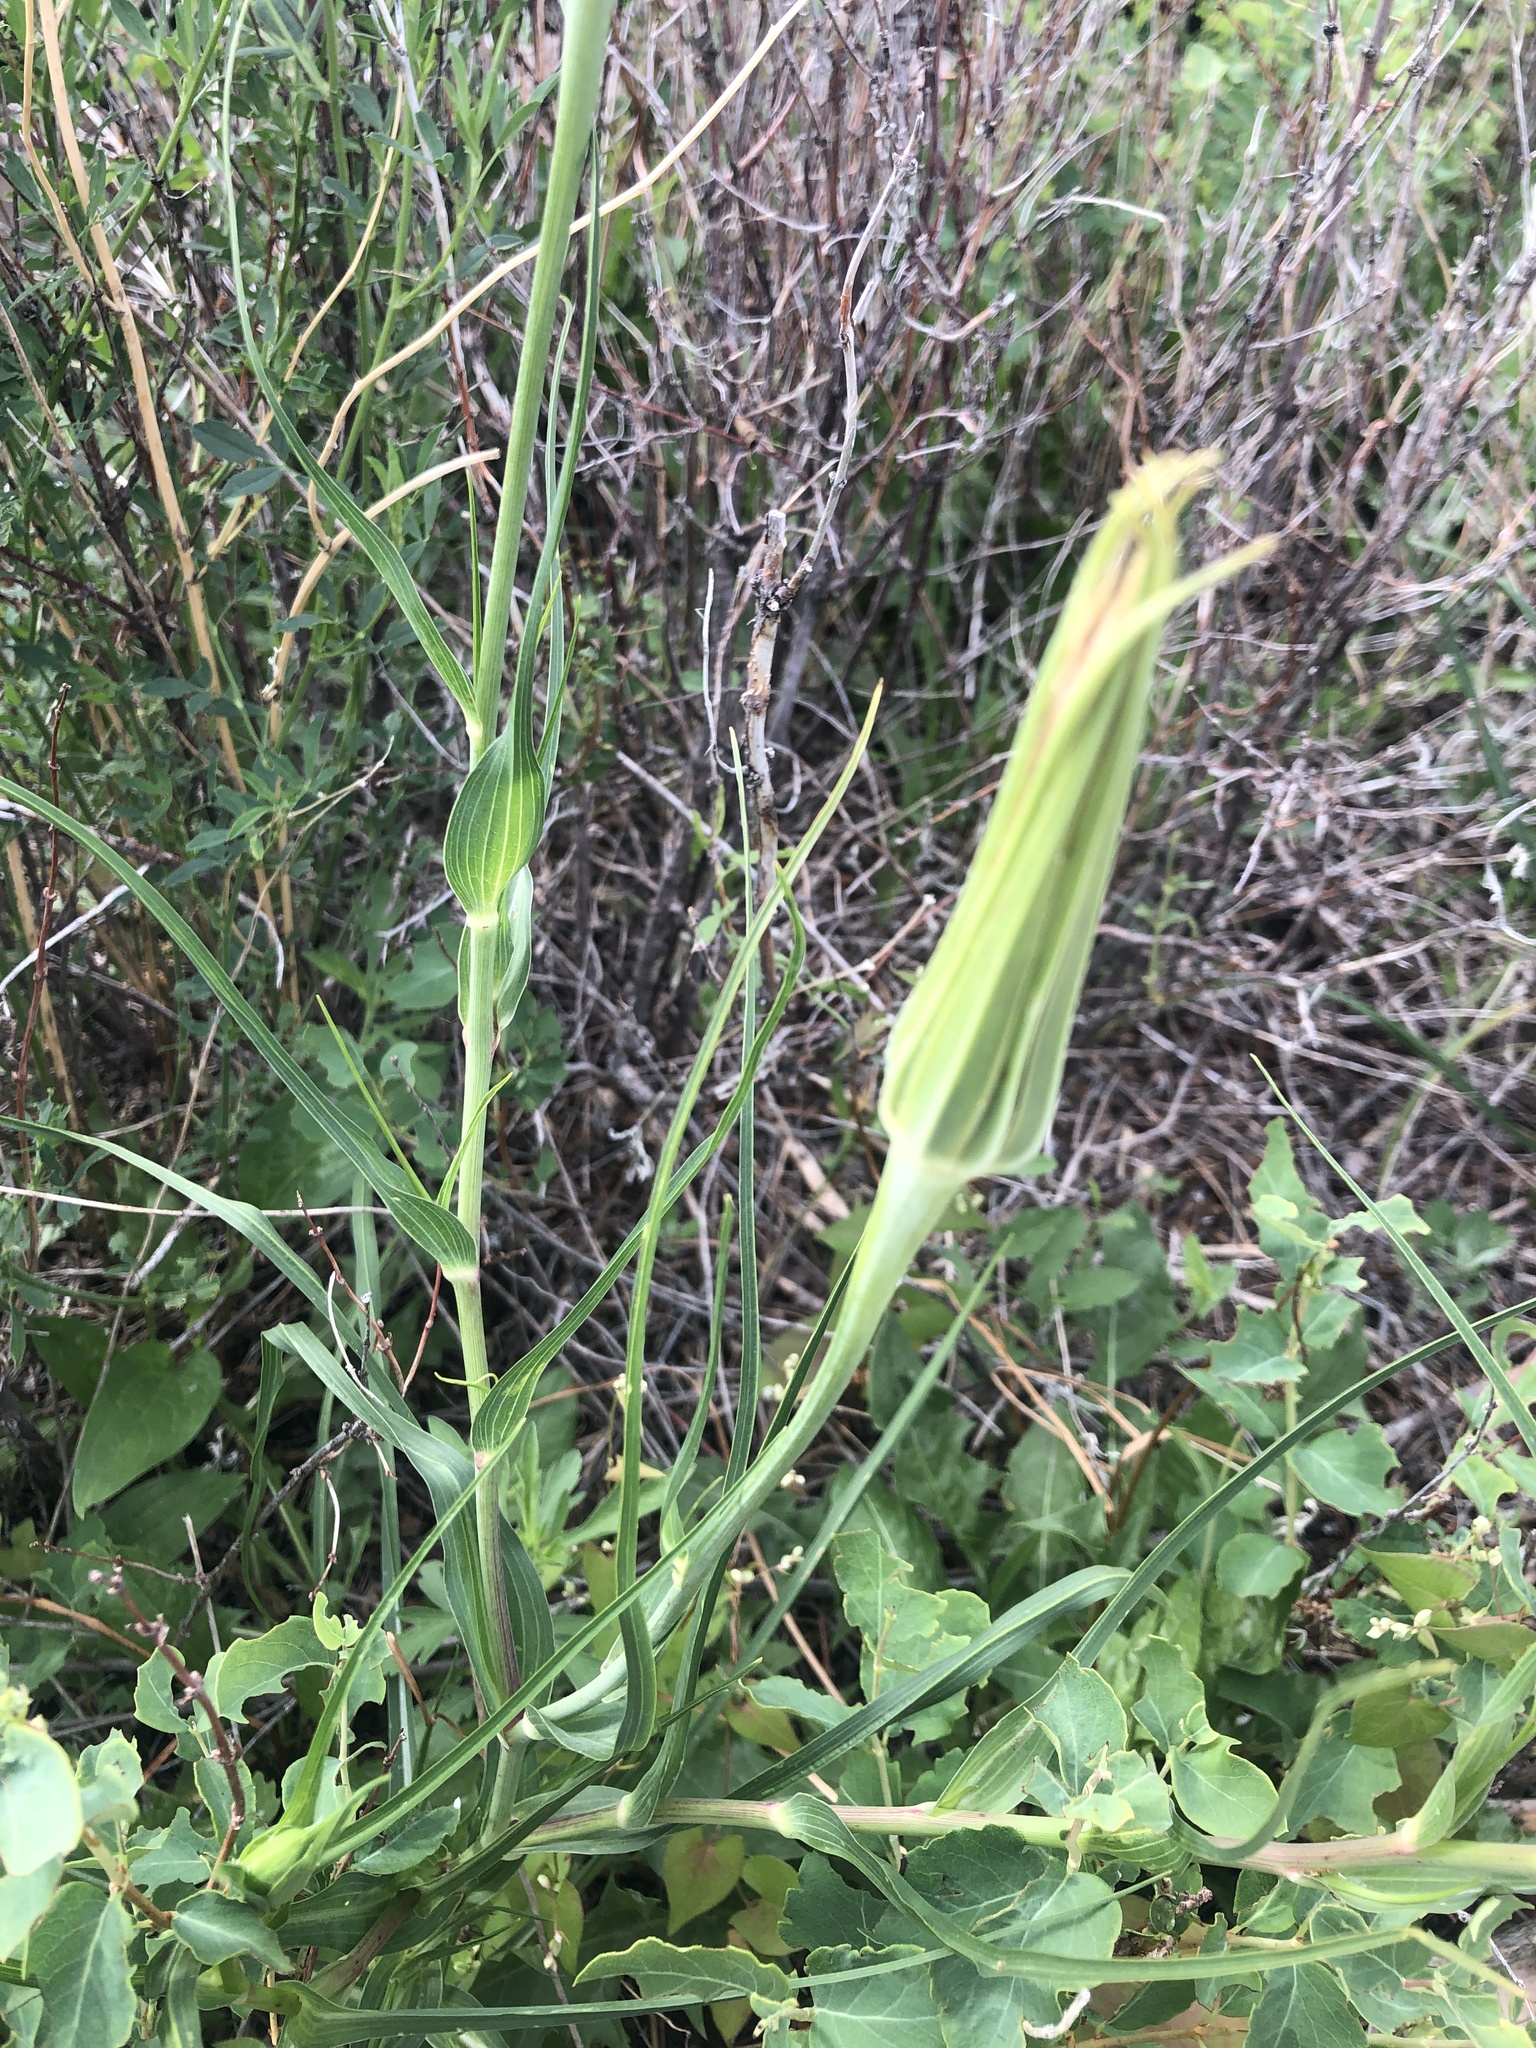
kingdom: Plantae
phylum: Tracheophyta
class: Magnoliopsida
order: Asterales
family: Asteraceae
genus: Tragopogon
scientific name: Tragopogon dubius
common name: Yellow salsify
